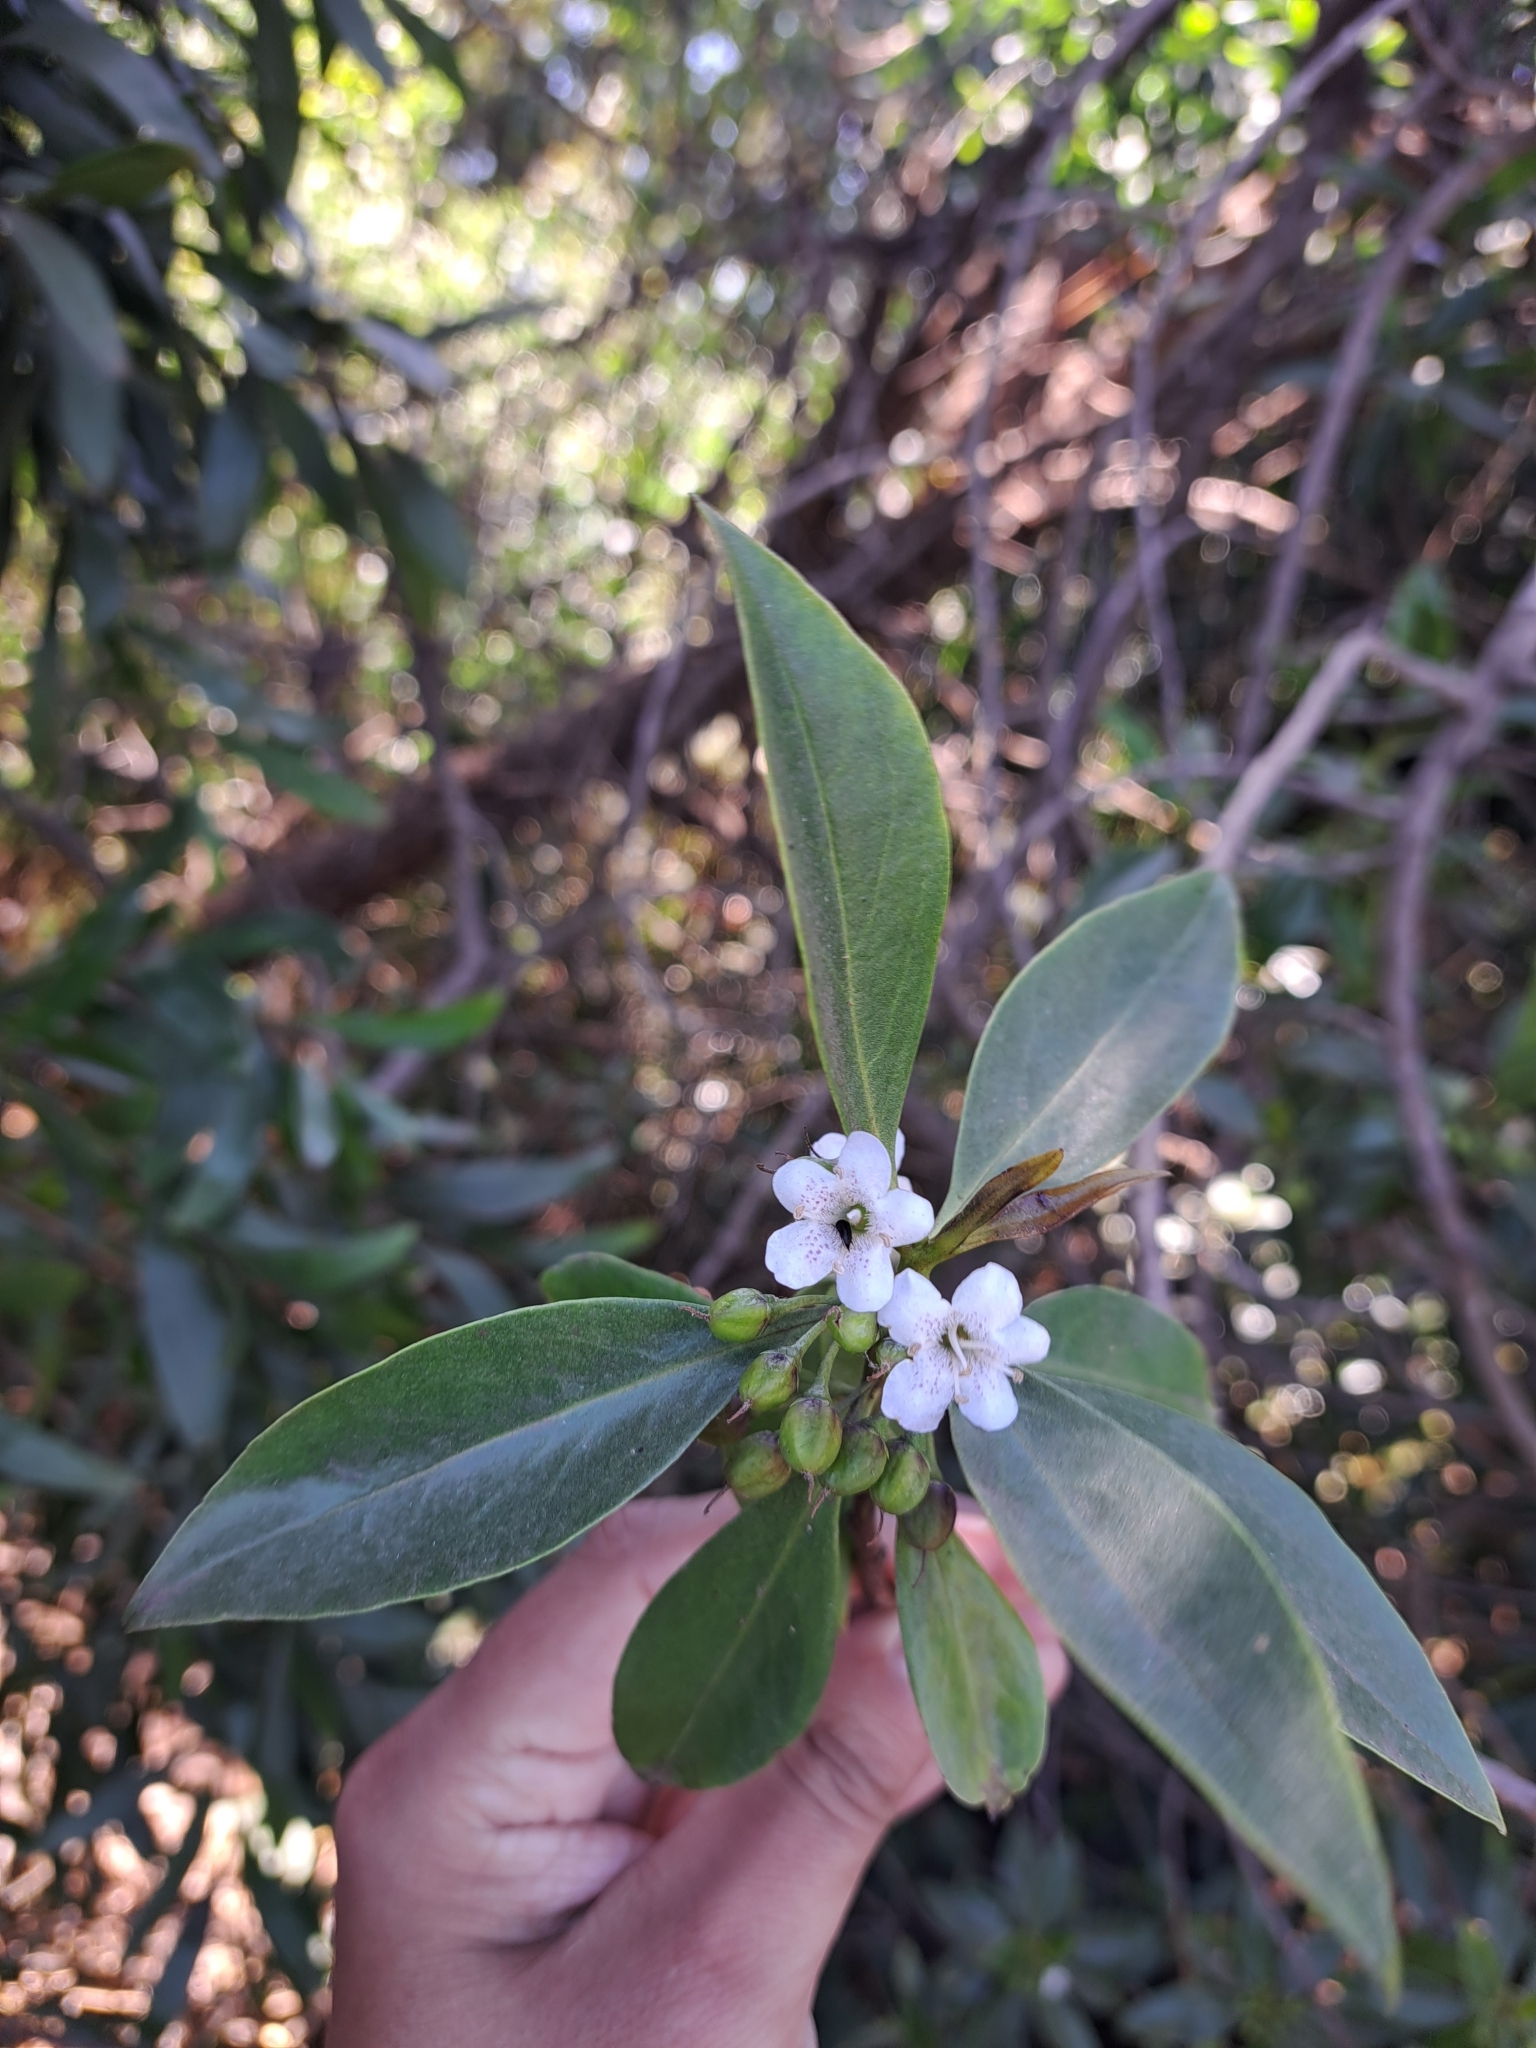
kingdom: Plantae
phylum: Tracheophyta
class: Magnoliopsida
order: Lamiales
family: Scrophulariaceae
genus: Myoporum
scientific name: Myoporum laetum
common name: Ngaio tree
